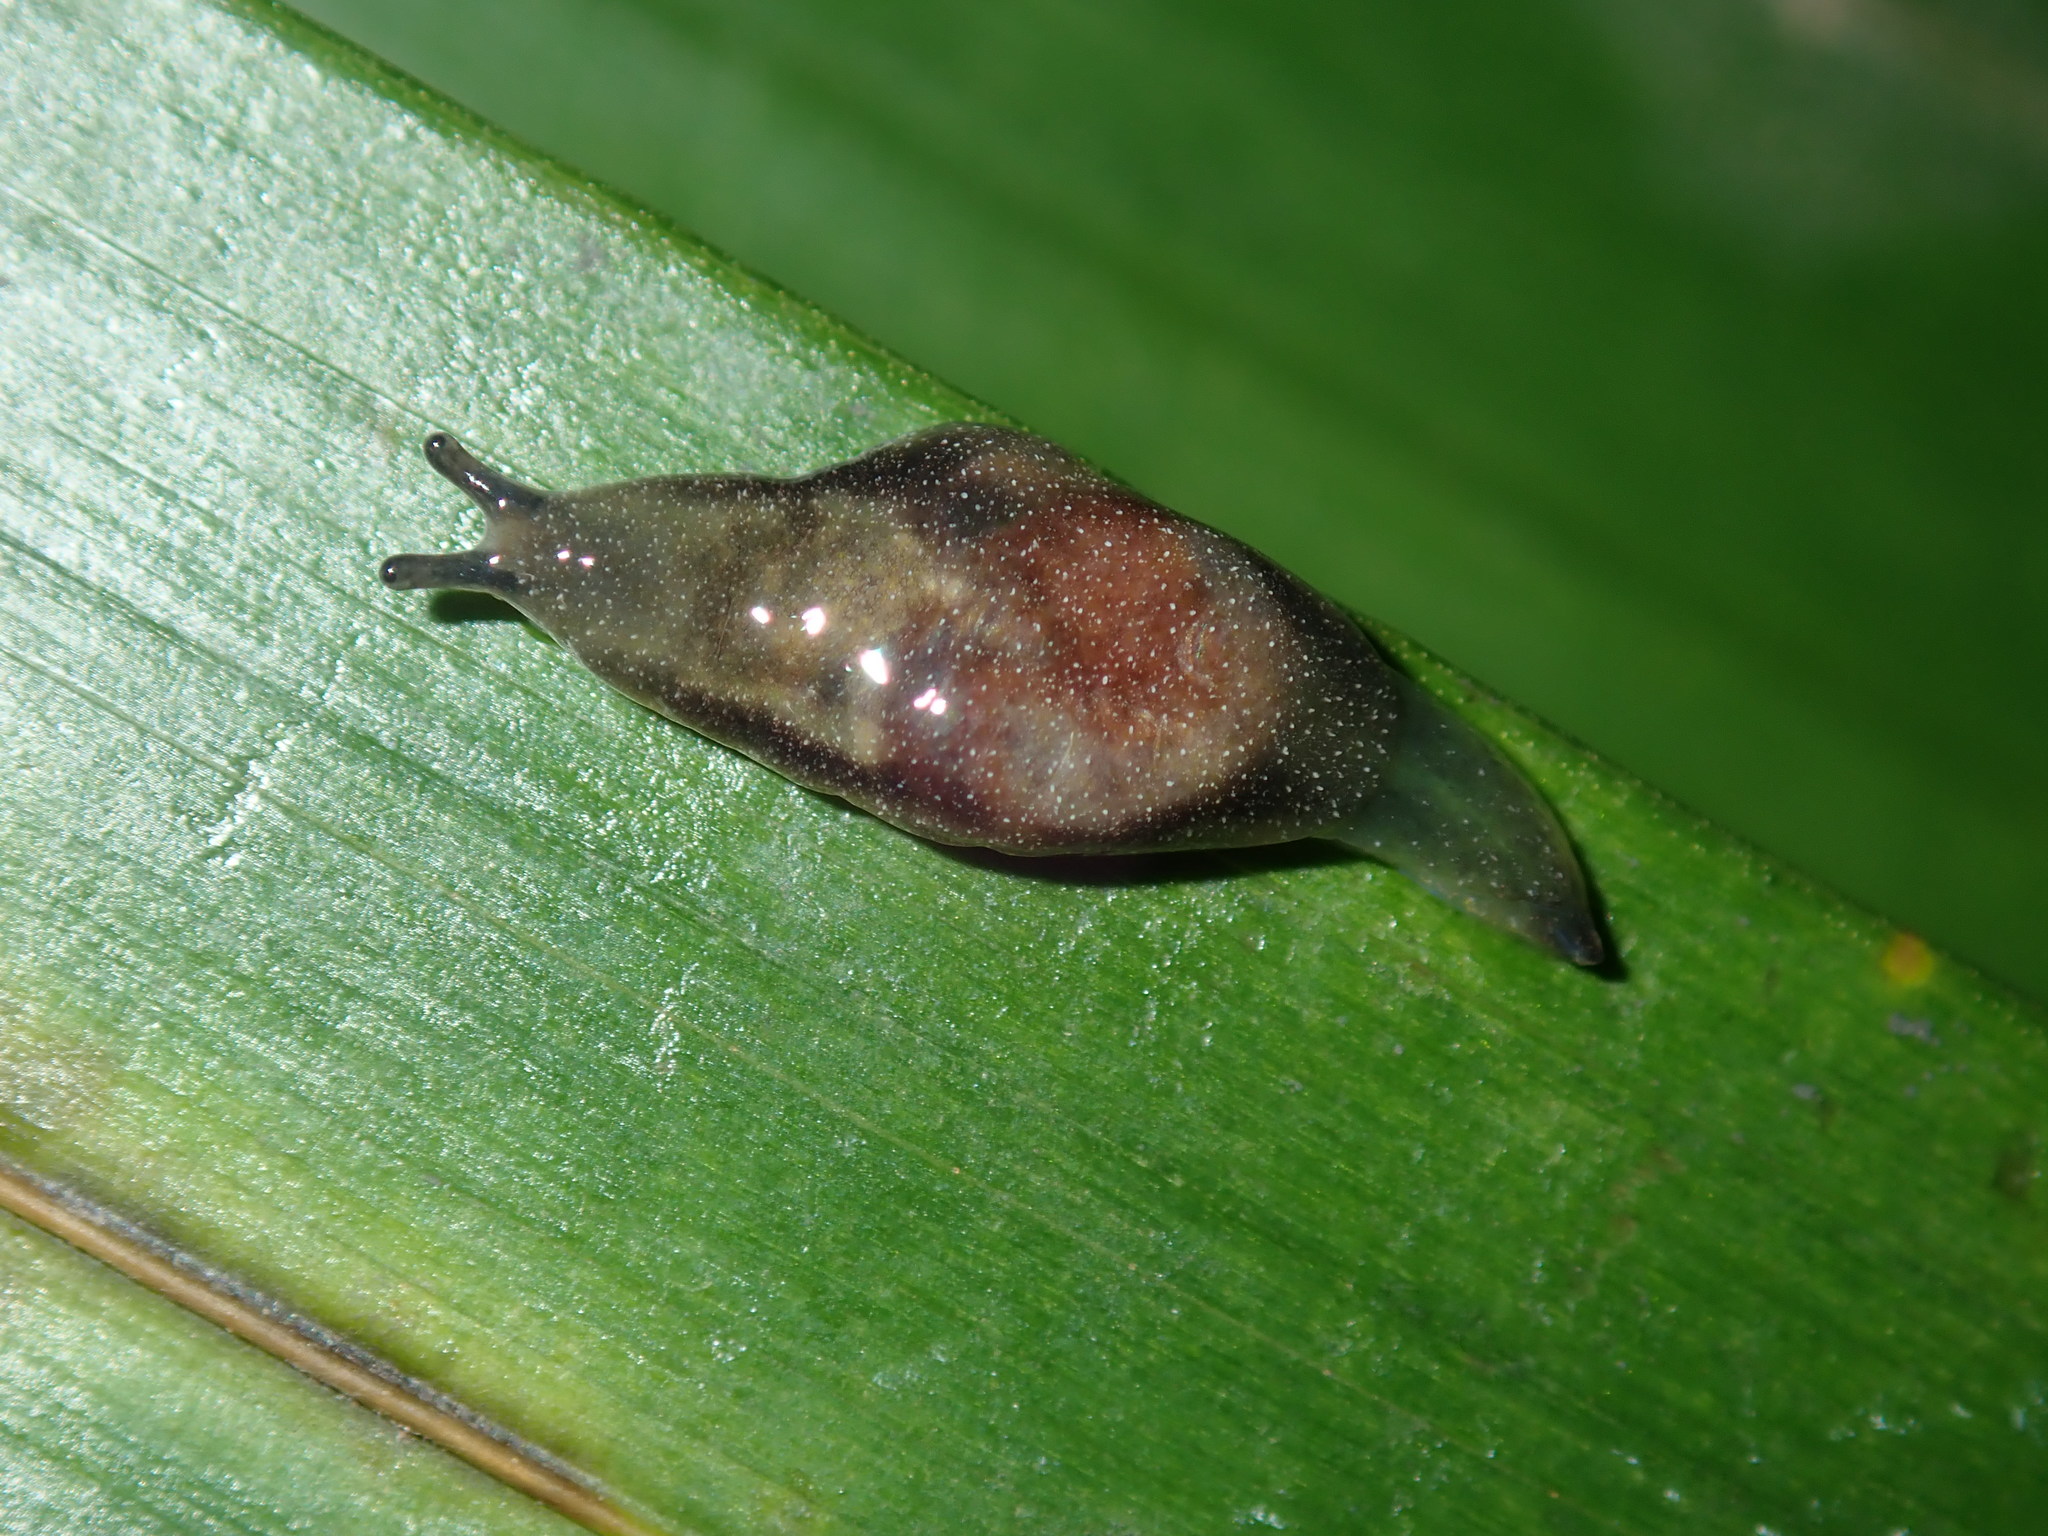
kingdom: Animalia
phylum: Mollusca
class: Gastropoda
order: Stylommatophora
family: Cystopeltidae
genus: Cystopelta
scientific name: Cystopelta
